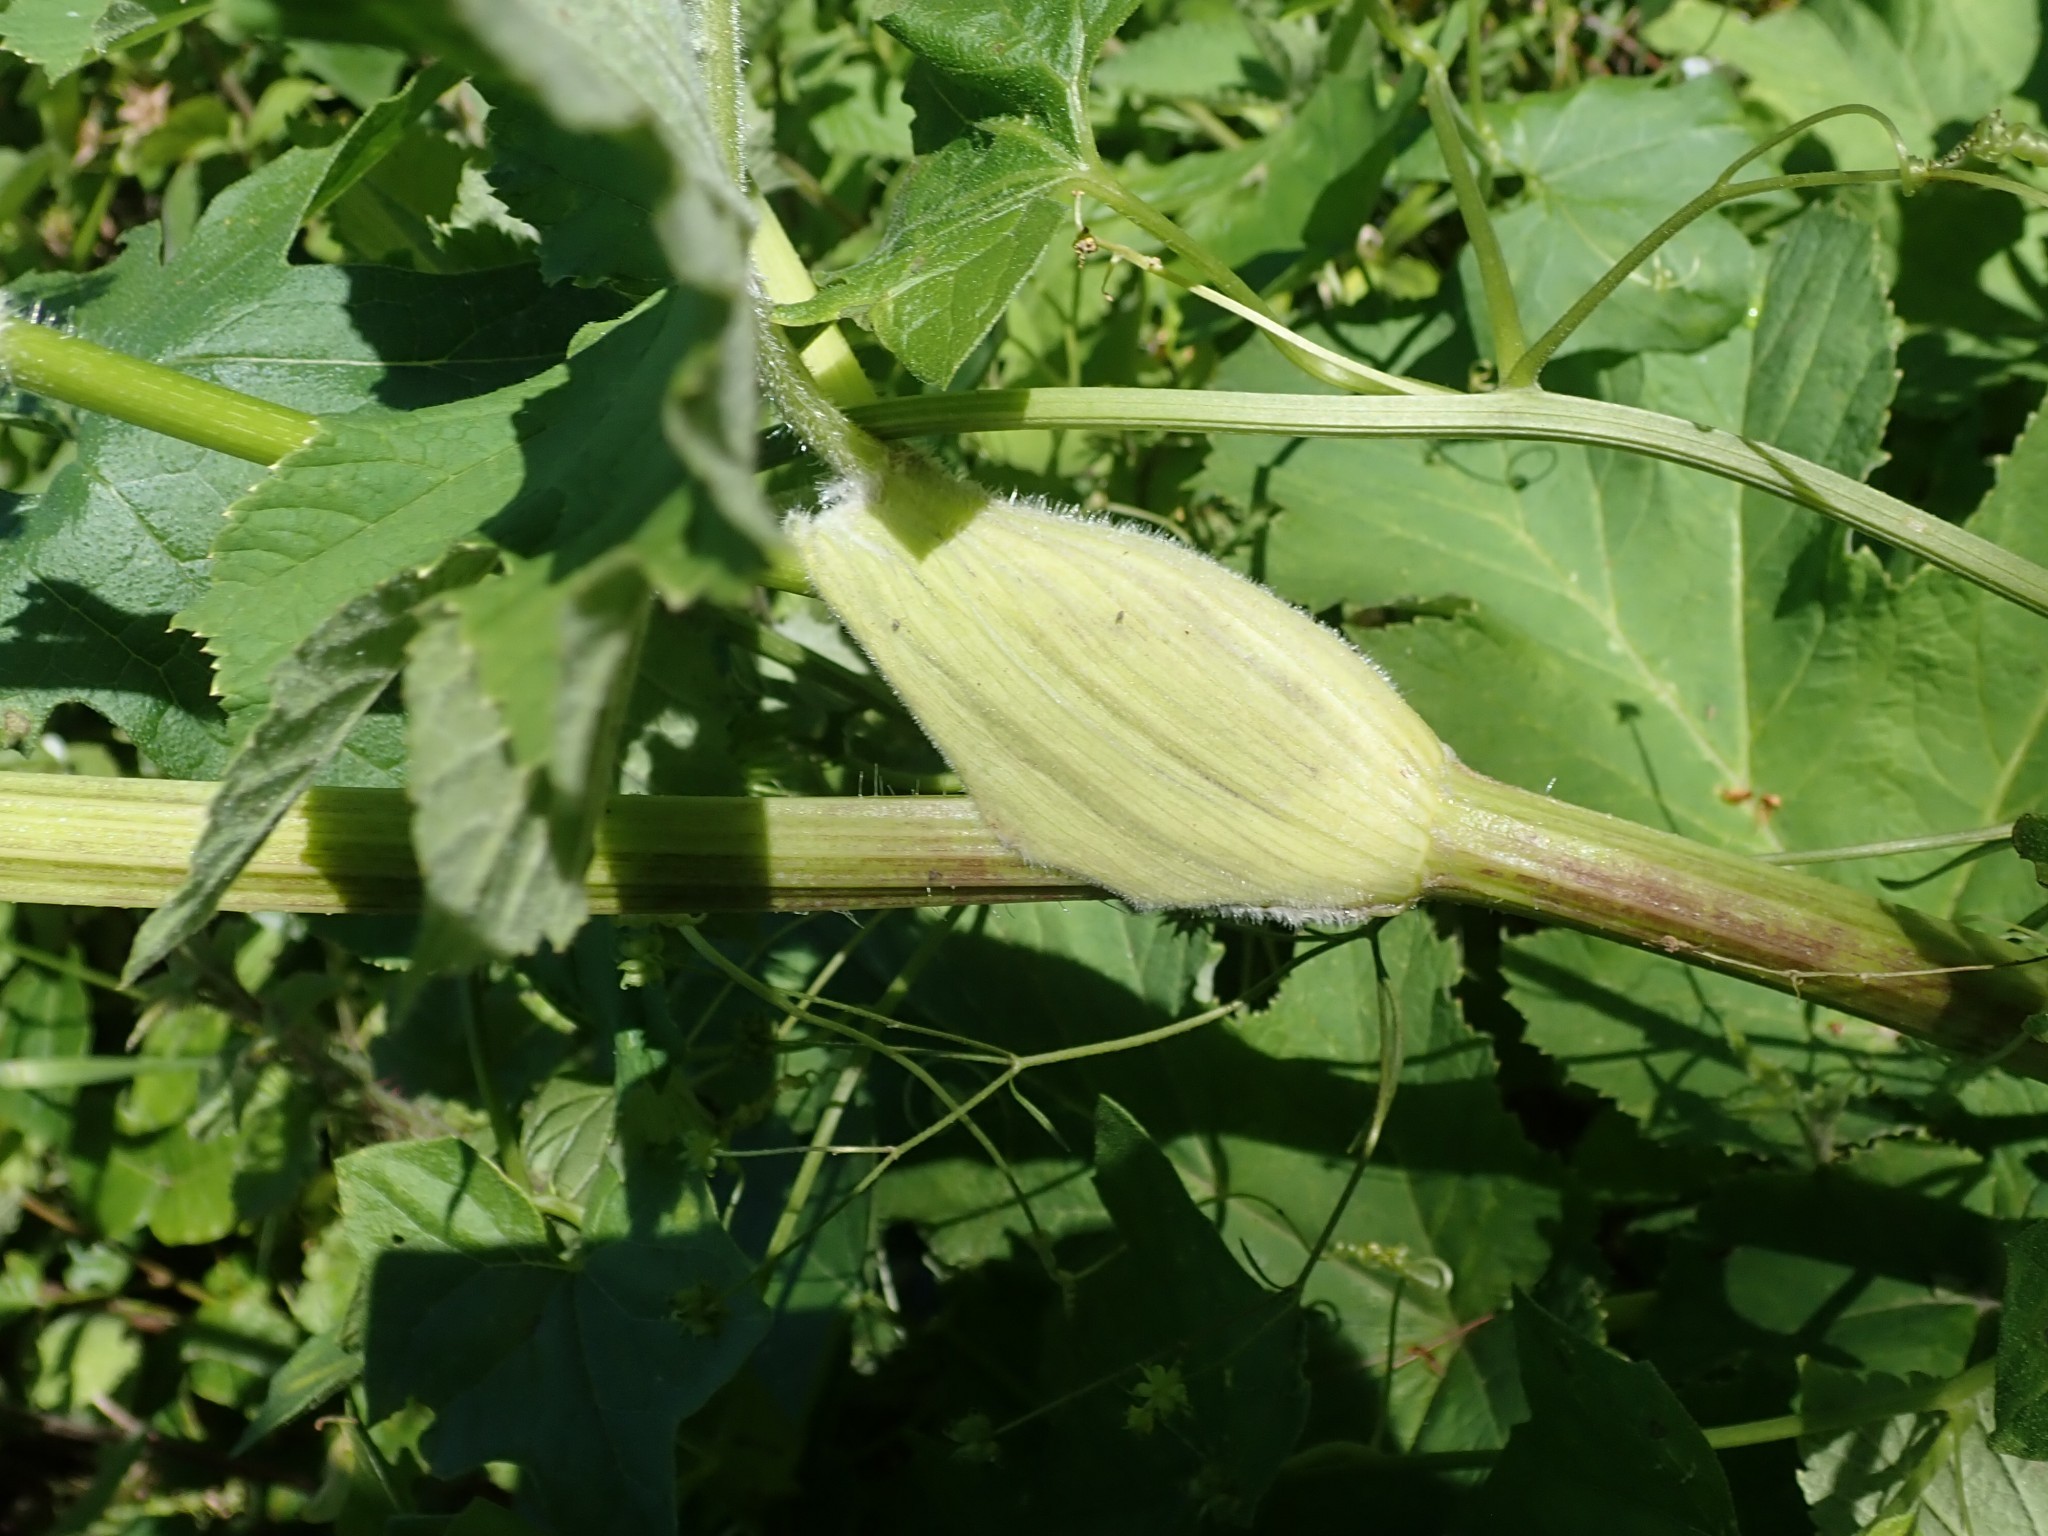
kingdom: Plantae
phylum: Tracheophyta
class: Magnoliopsida
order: Apiales
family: Apiaceae
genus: Heracleum
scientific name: Heracleum maximum
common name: American cow parsnip
